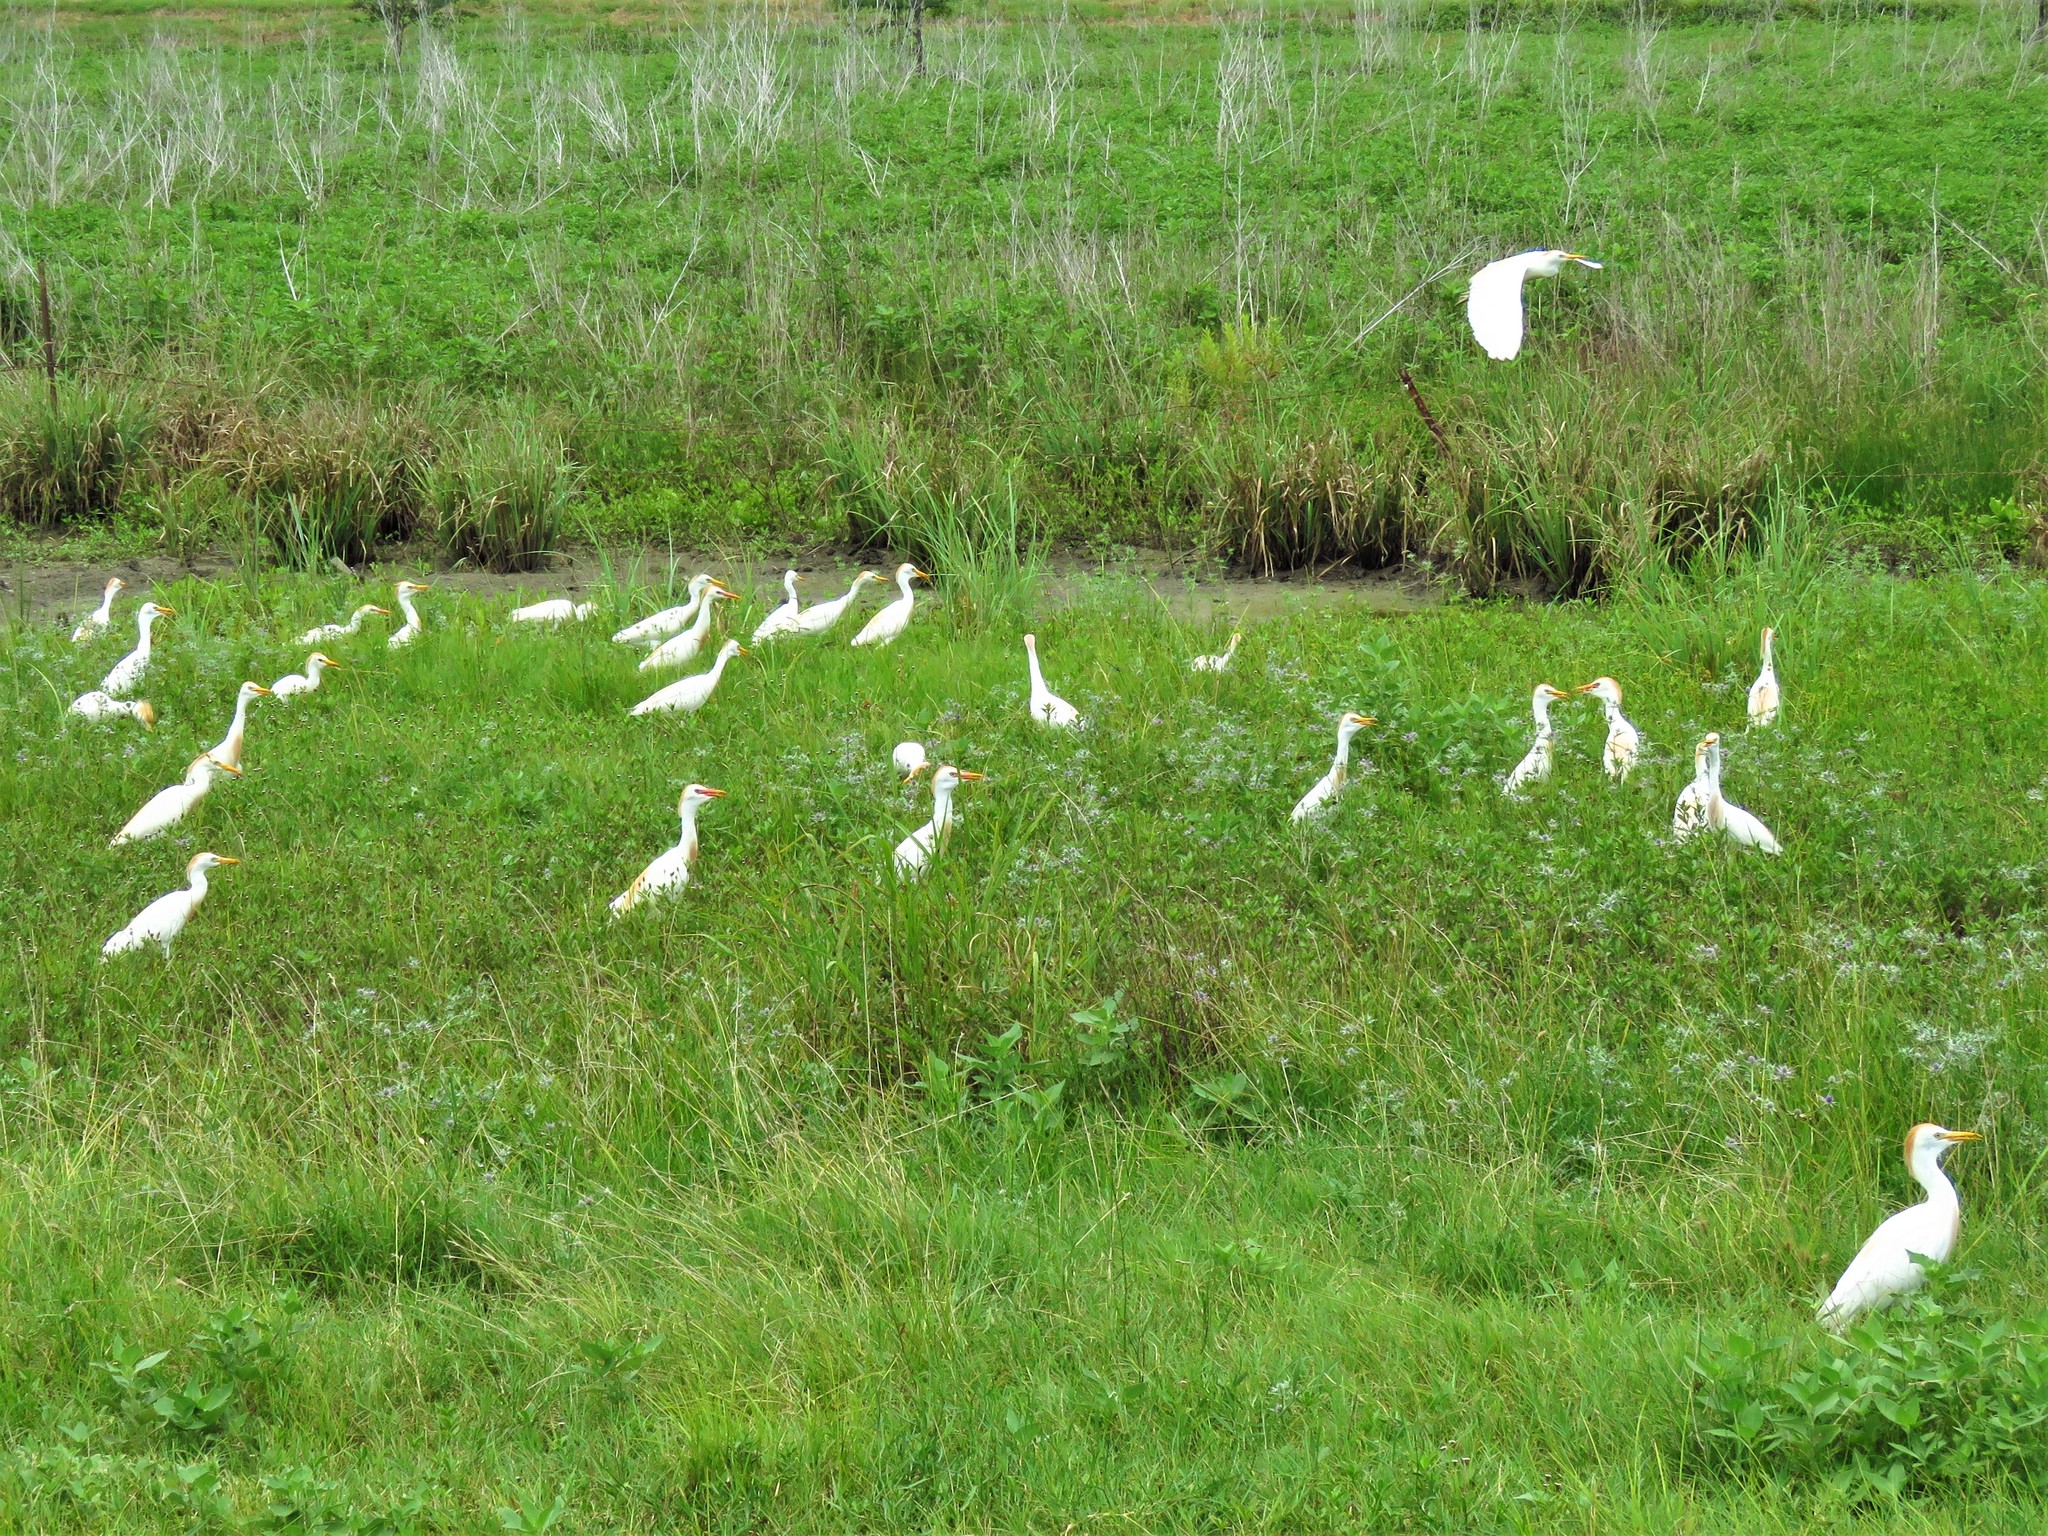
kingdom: Animalia
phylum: Chordata
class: Aves
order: Pelecaniformes
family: Ardeidae
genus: Bubulcus
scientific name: Bubulcus ibis
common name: Cattle egret
